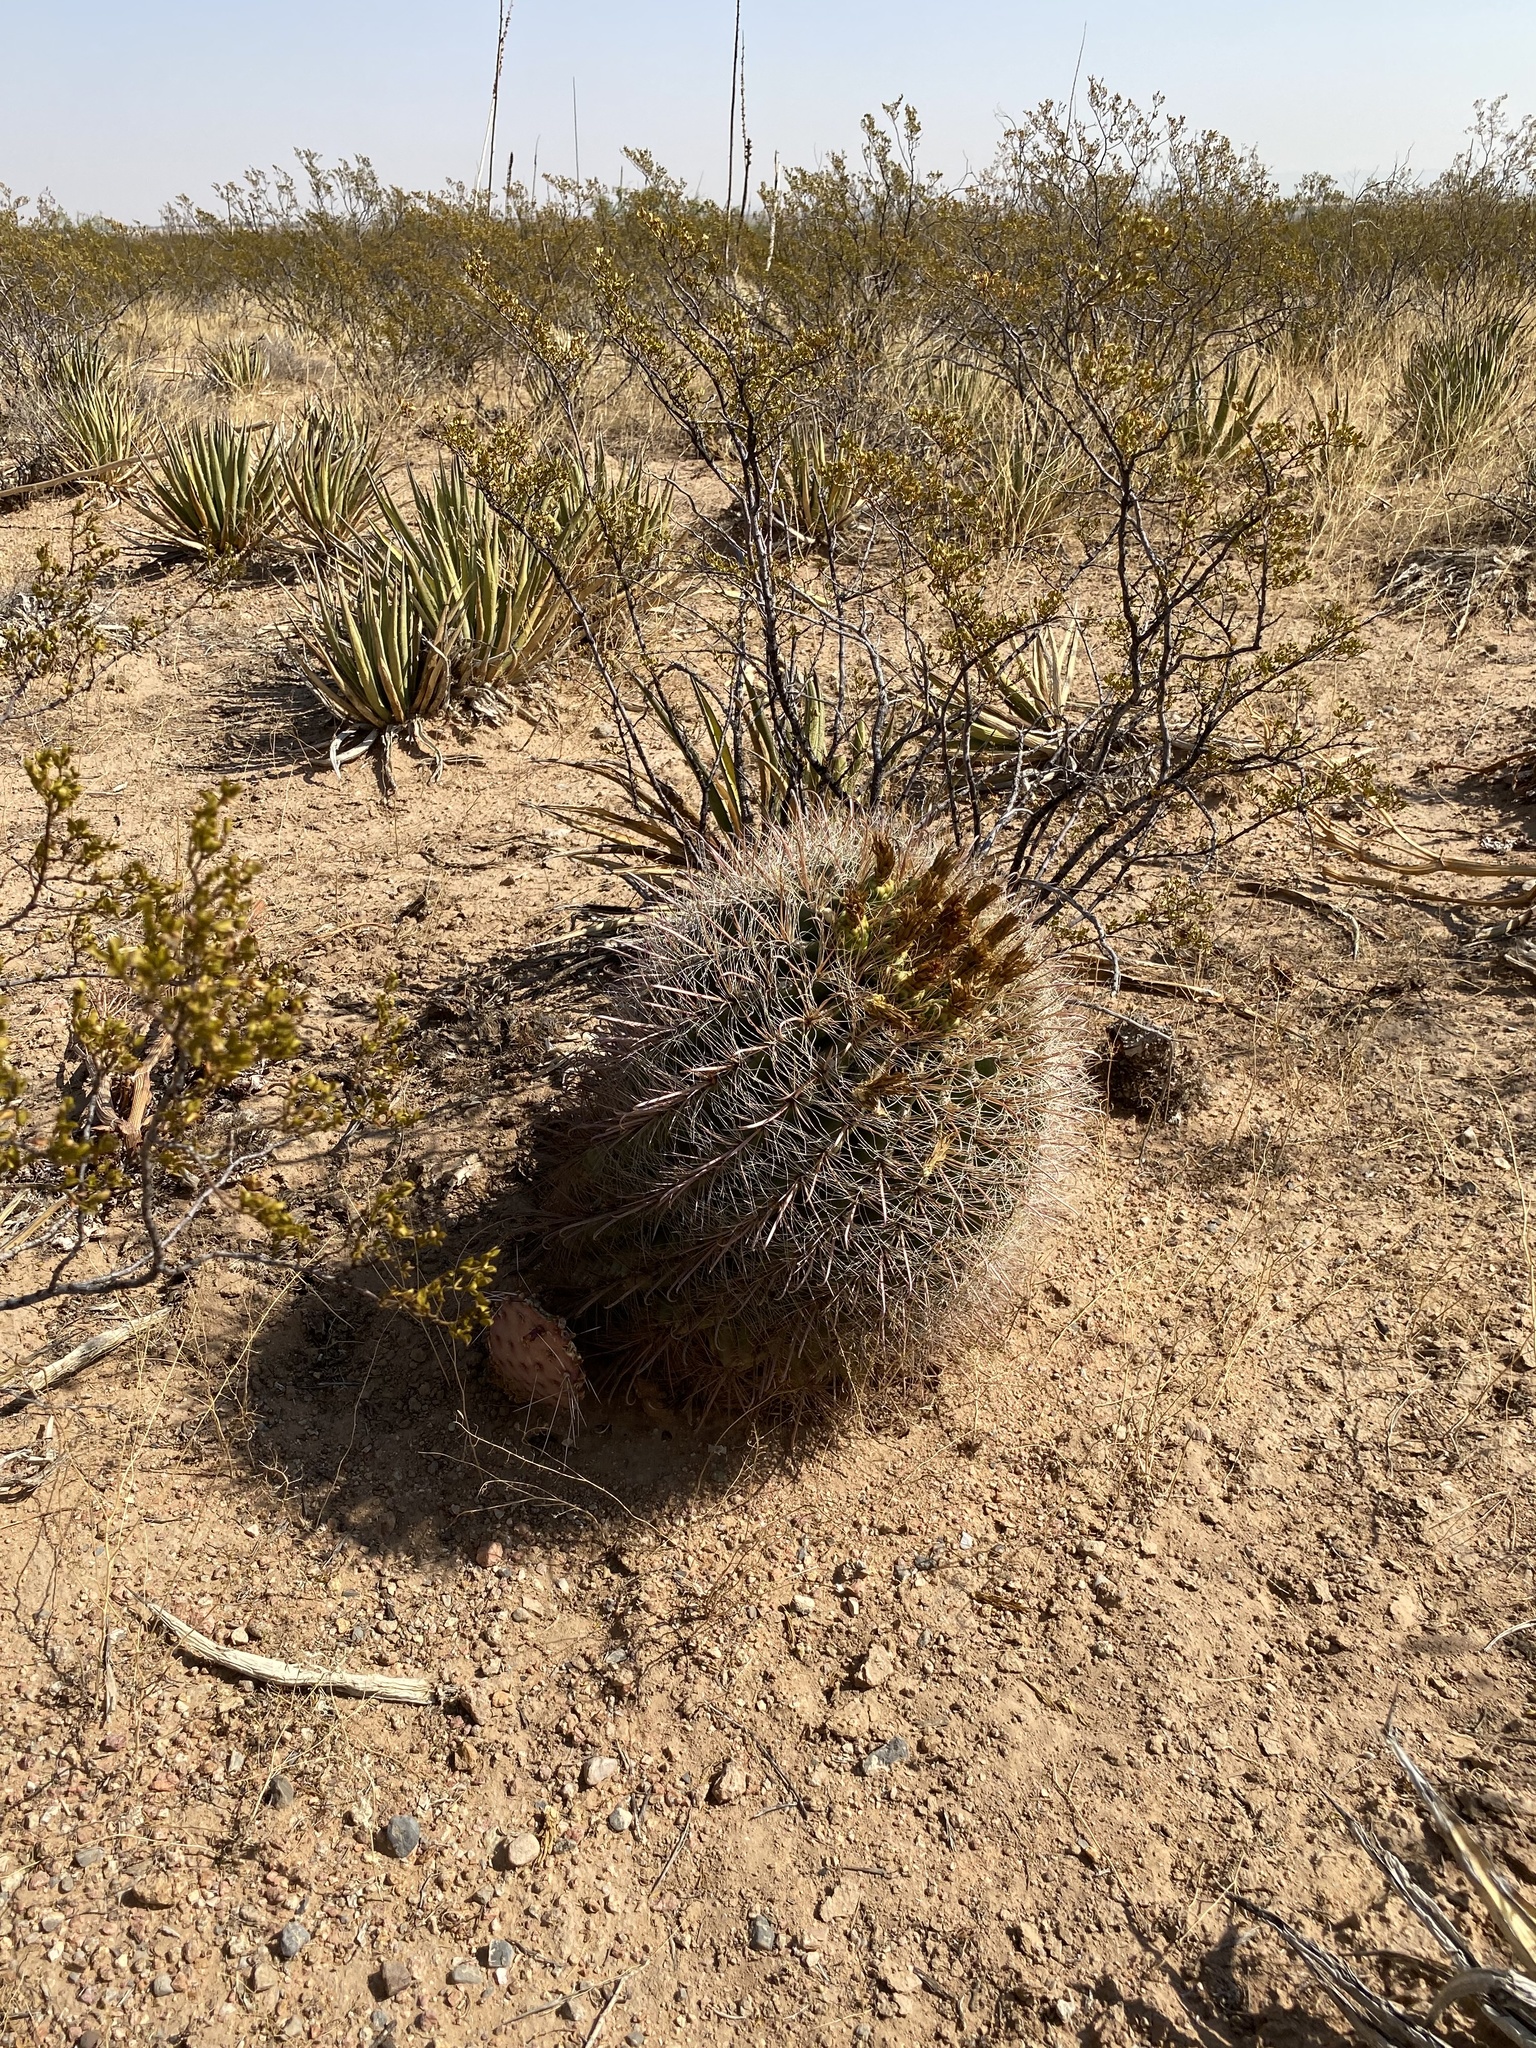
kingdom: Plantae
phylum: Tracheophyta
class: Magnoliopsida
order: Caryophyllales
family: Cactaceae
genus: Ferocactus
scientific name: Ferocactus wislizeni
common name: Candy barrel cactus
